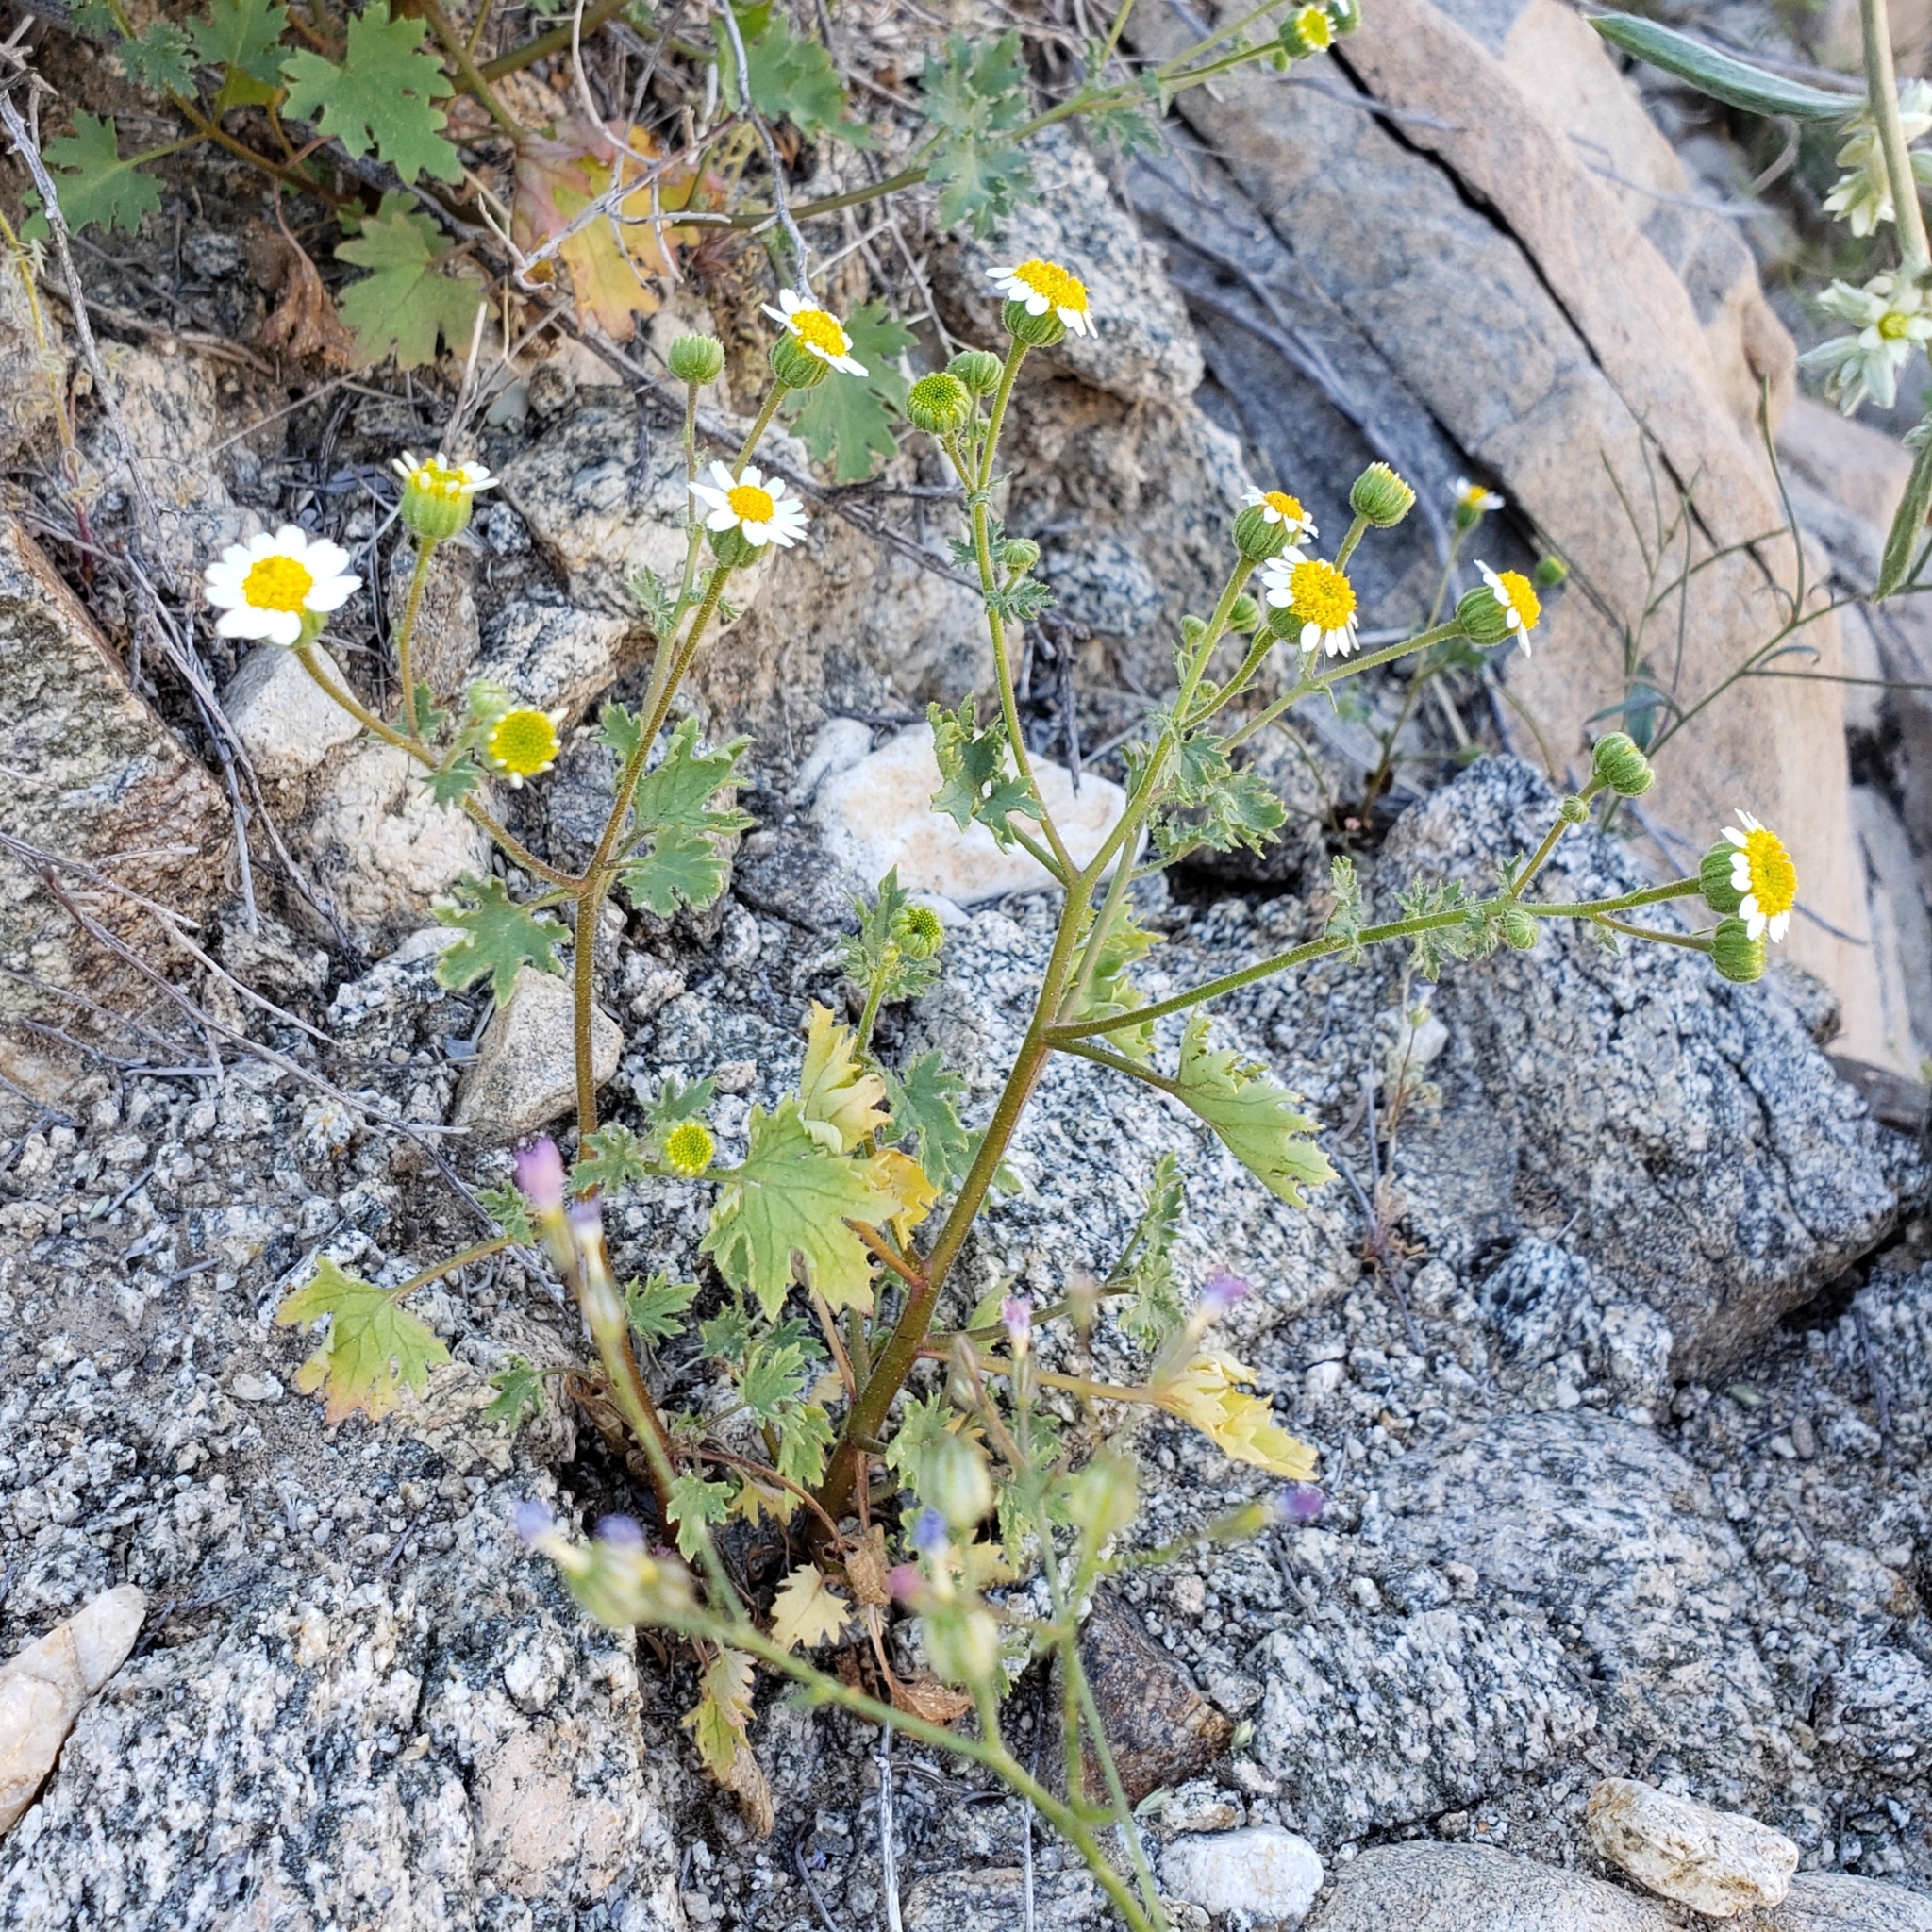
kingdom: Plantae
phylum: Tracheophyta
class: Magnoliopsida
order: Asterales
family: Asteraceae
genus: Laphamia
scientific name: Laphamia emoryi
